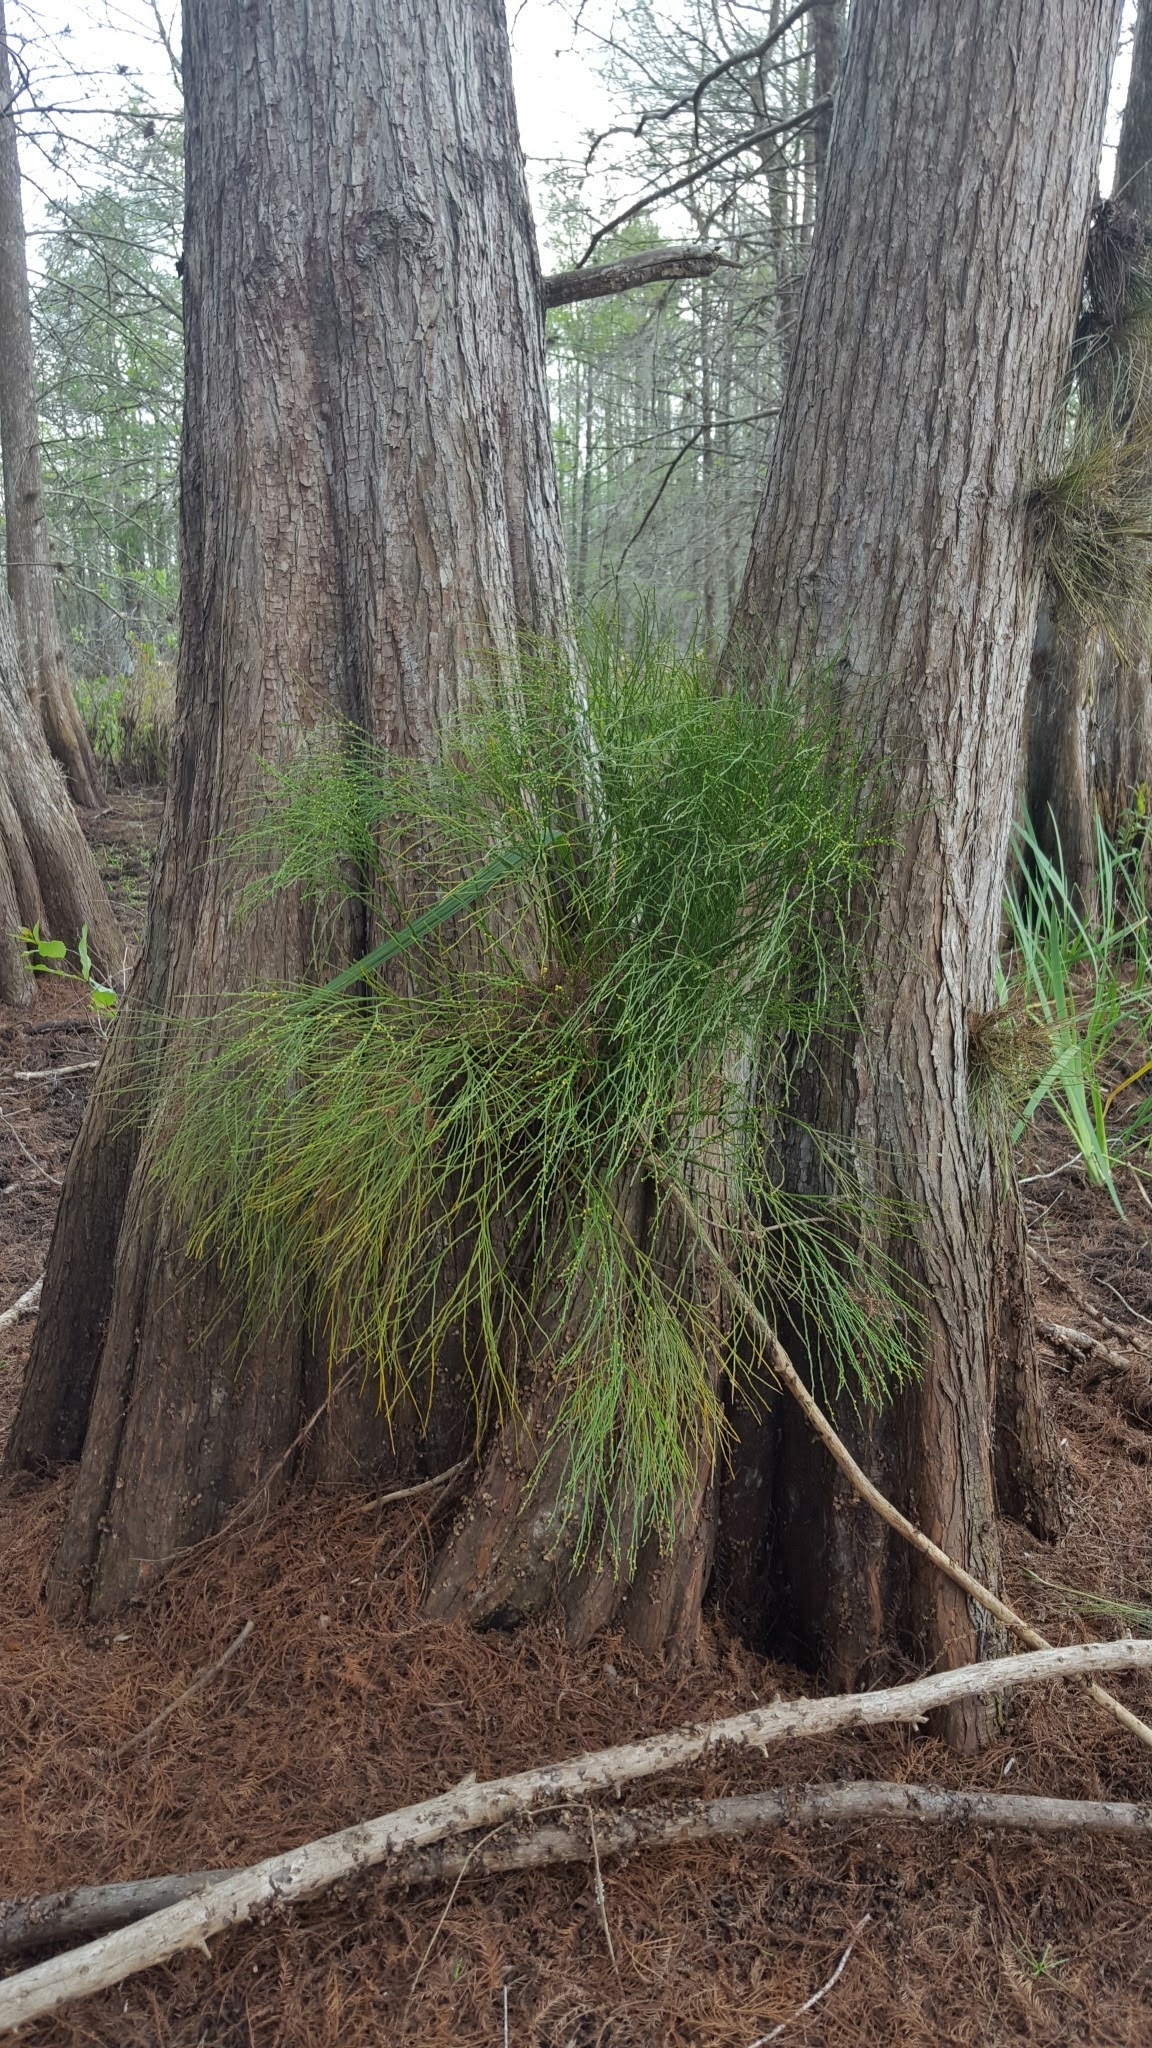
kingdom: Plantae
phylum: Tracheophyta
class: Polypodiopsida
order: Psilotales
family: Psilotaceae
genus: Psilotum
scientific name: Psilotum nudum
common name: Skeleton fork fern
